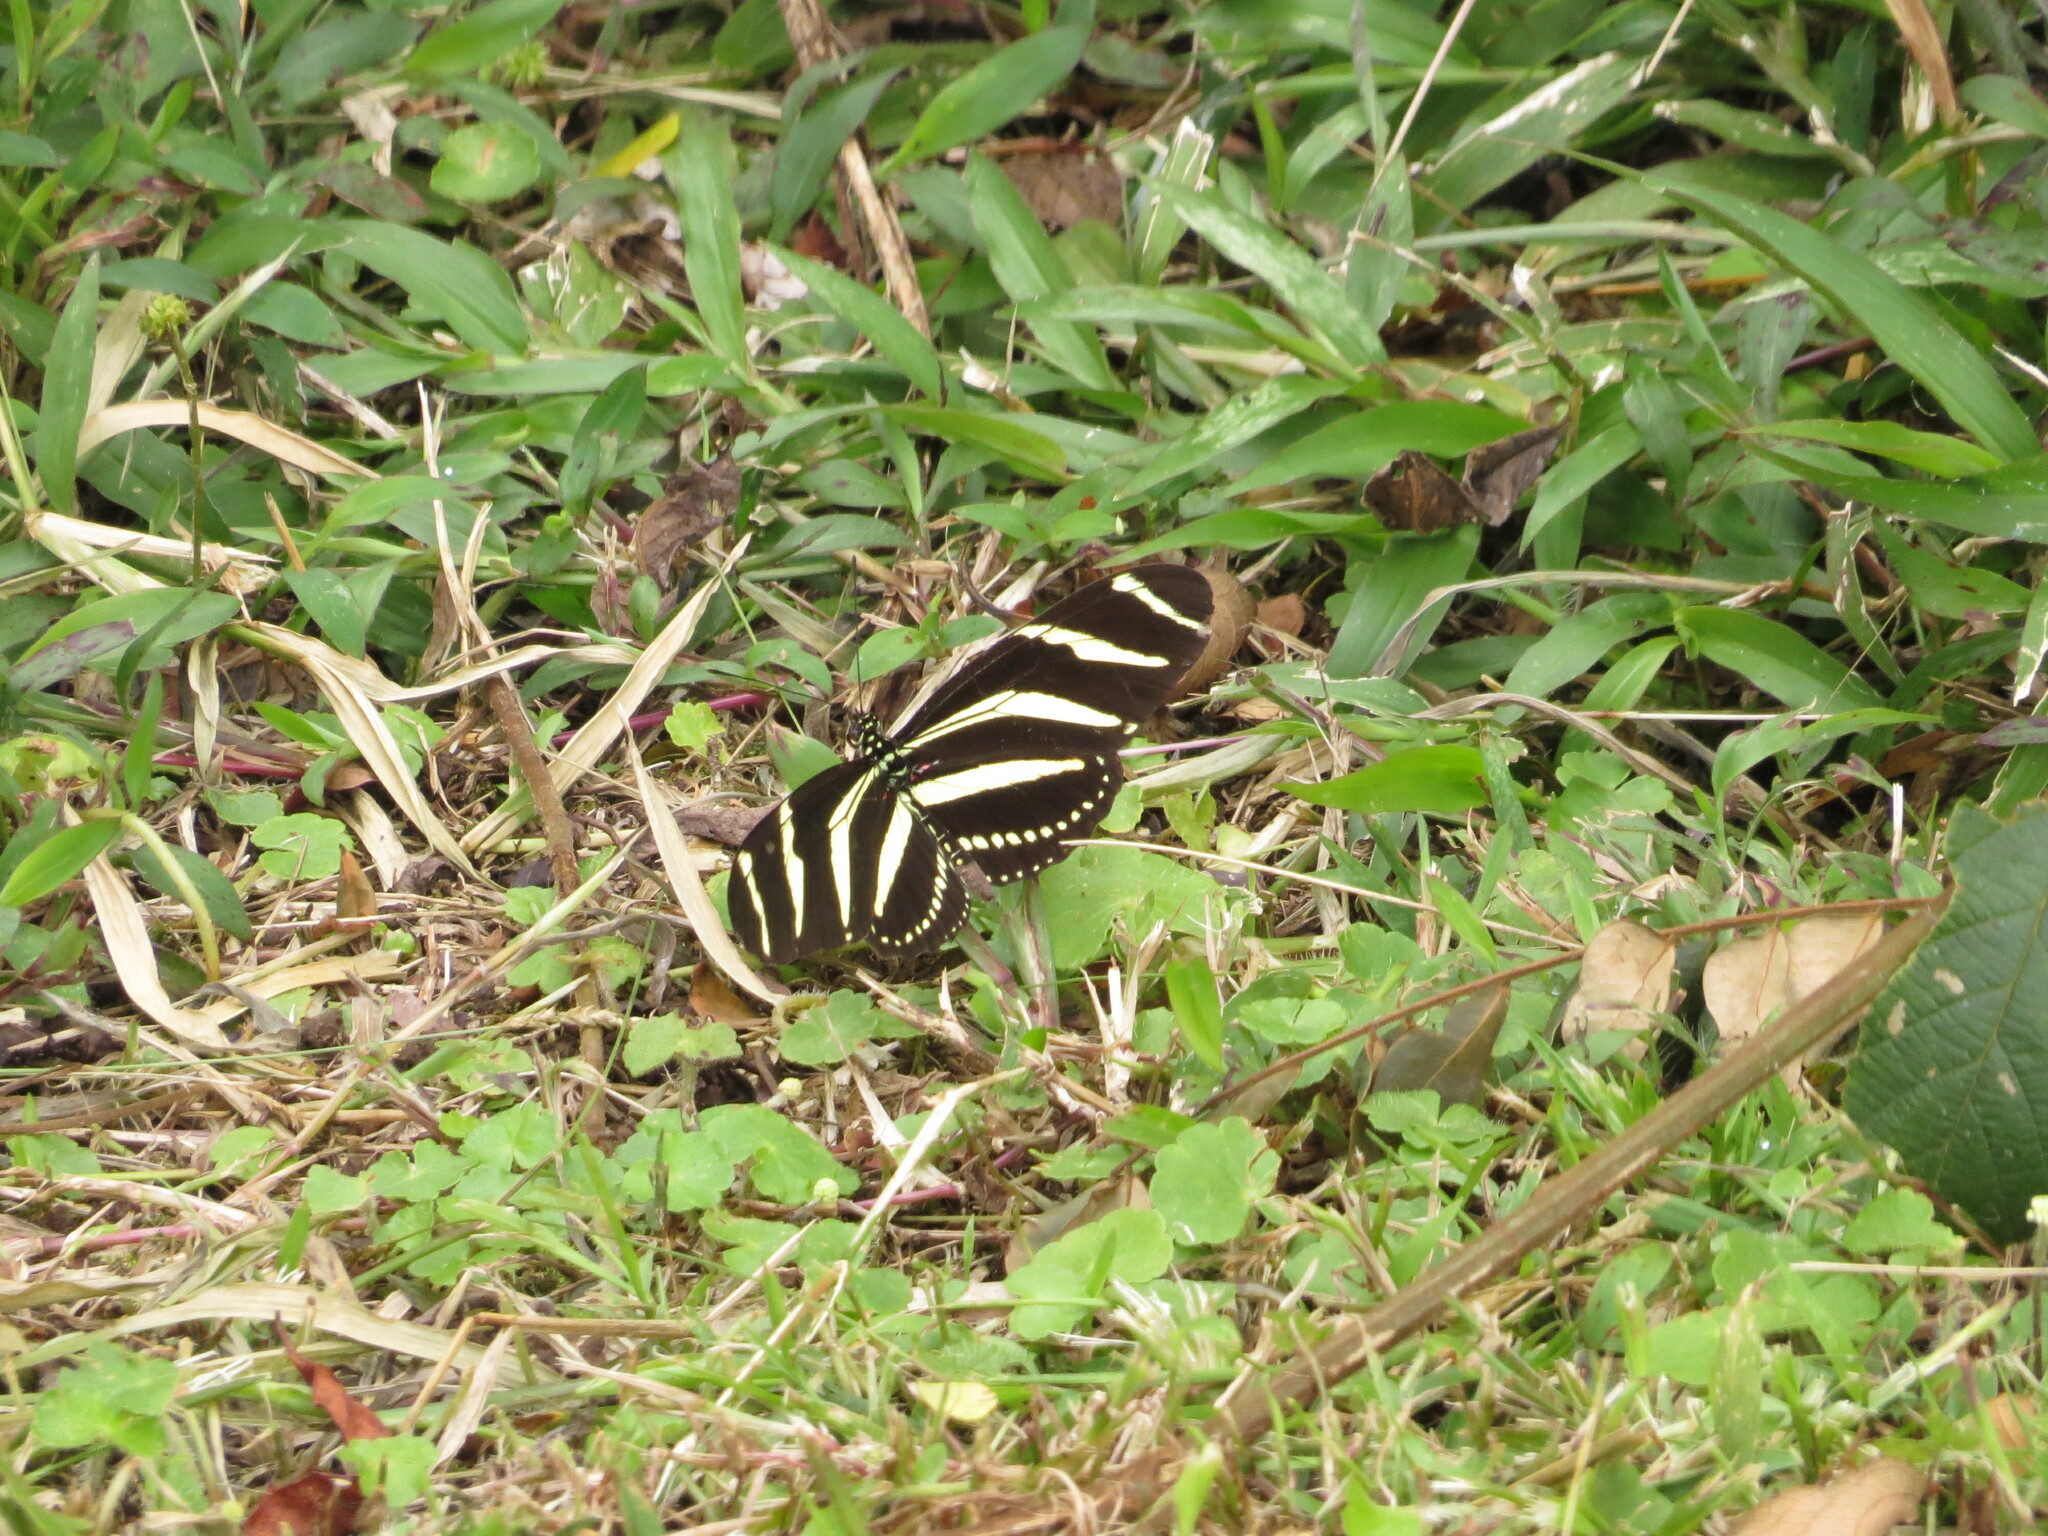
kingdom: Animalia
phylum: Arthropoda
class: Insecta
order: Lepidoptera
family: Nymphalidae
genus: Heliconius
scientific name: Heliconius charithonia
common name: Zebra long wing
